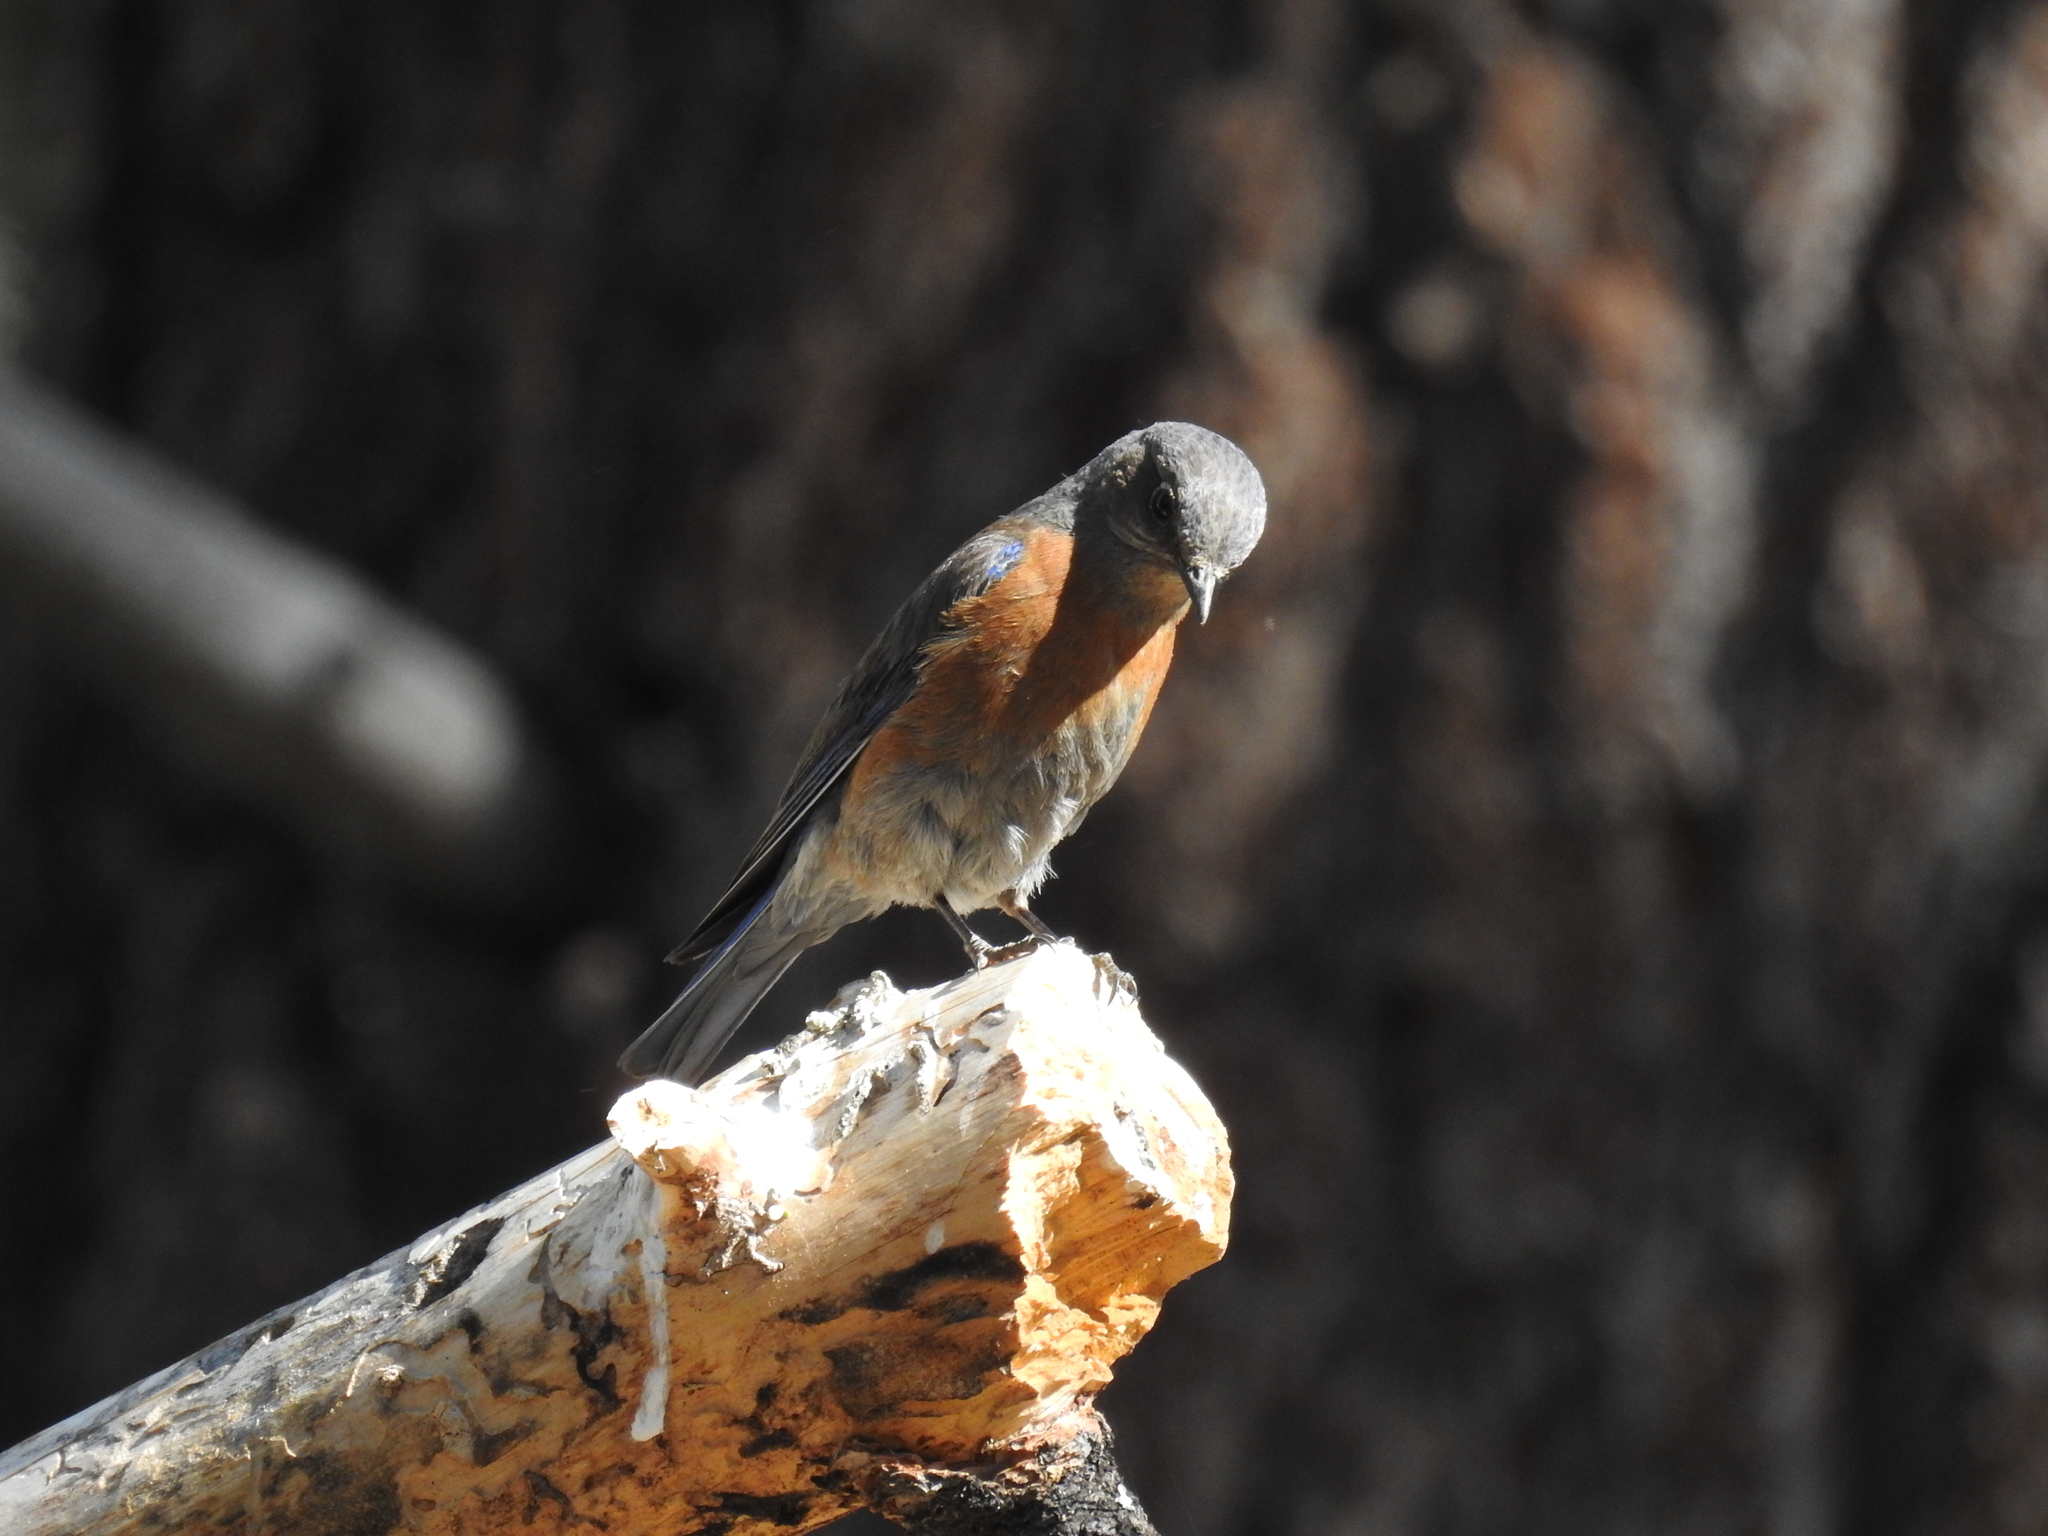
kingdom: Animalia
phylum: Chordata
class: Aves
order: Passeriformes
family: Turdidae
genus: Sialia
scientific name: Sialia mexicana
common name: Western bluebird
